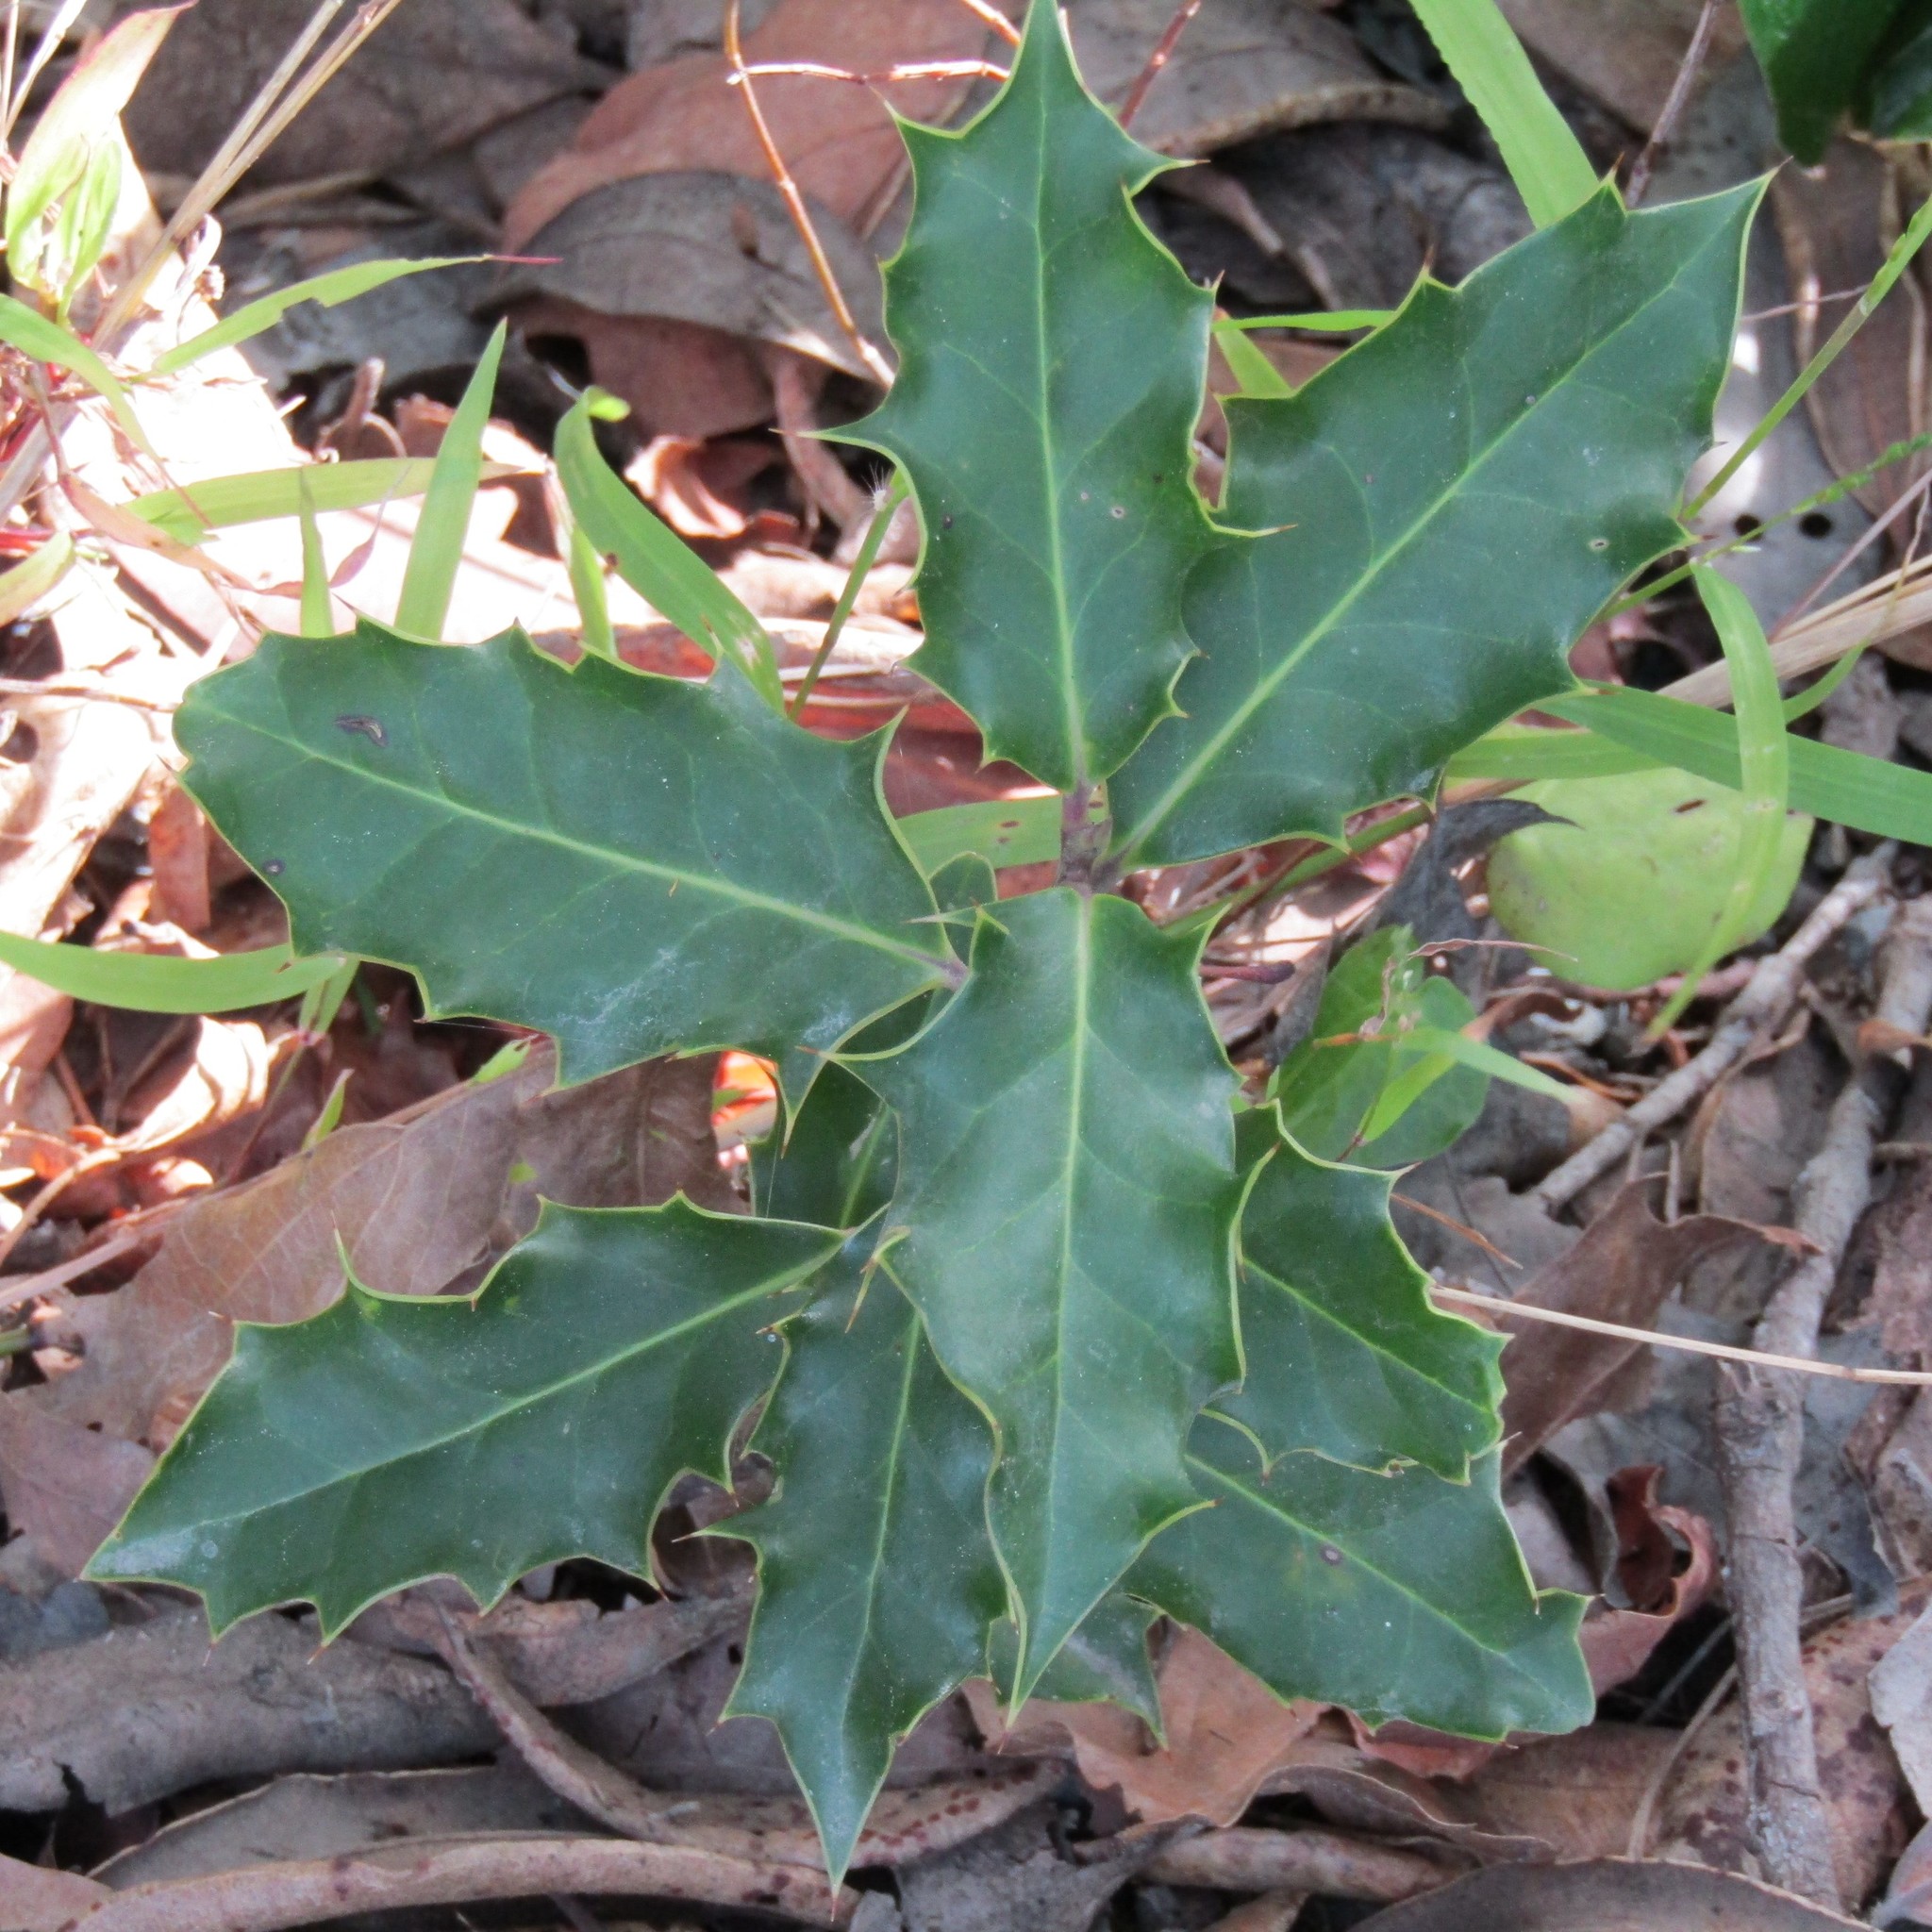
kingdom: Plantae
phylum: Tracheophyta
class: Magnoliopsida
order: Aquifoliales
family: Aquifoliaceae
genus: Ilex
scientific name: Ilex aquifolium
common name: English holly
